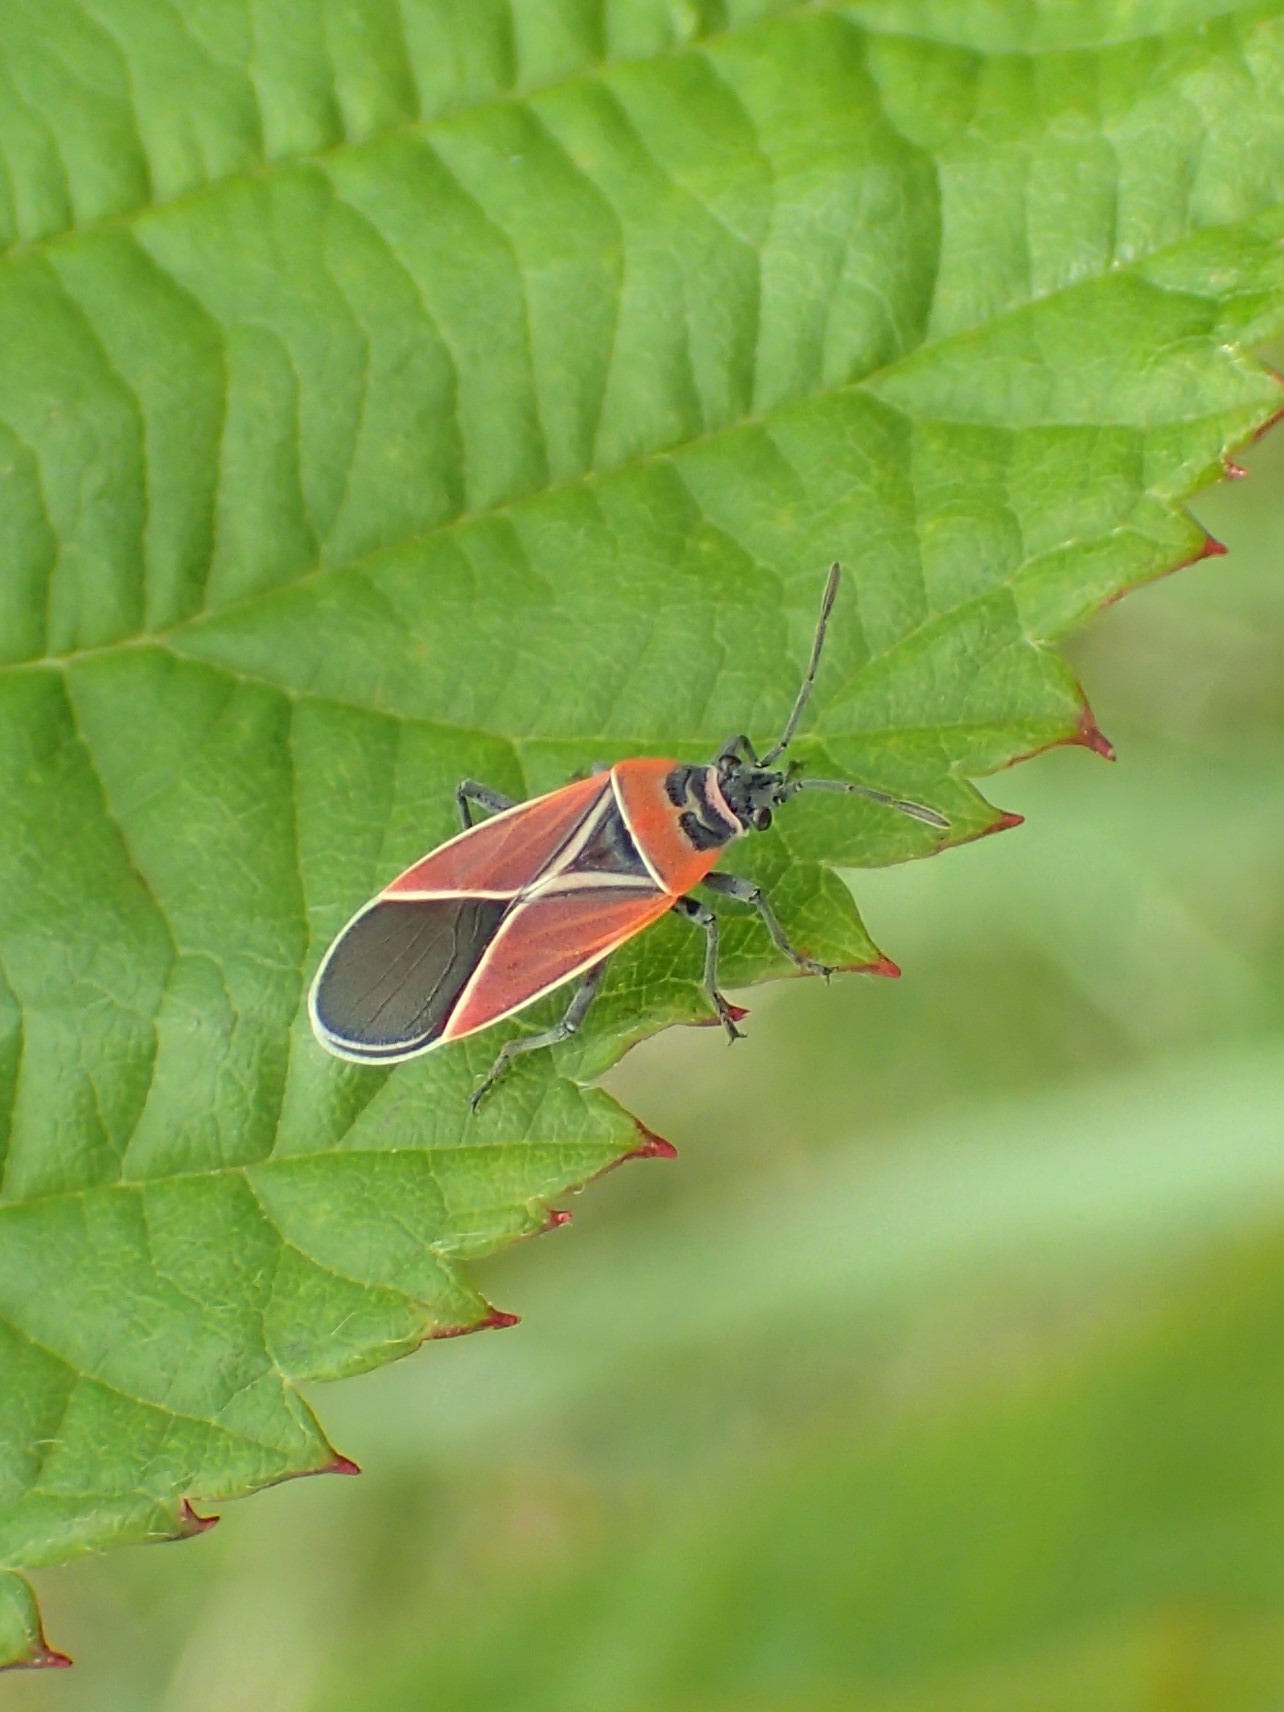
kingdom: Animalia
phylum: Arthropoda
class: Insecta
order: Hemiptera
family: Lygaeidae
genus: Neacoryphus
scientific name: Neacoryphus bicrucis
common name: Lygaeid bug
